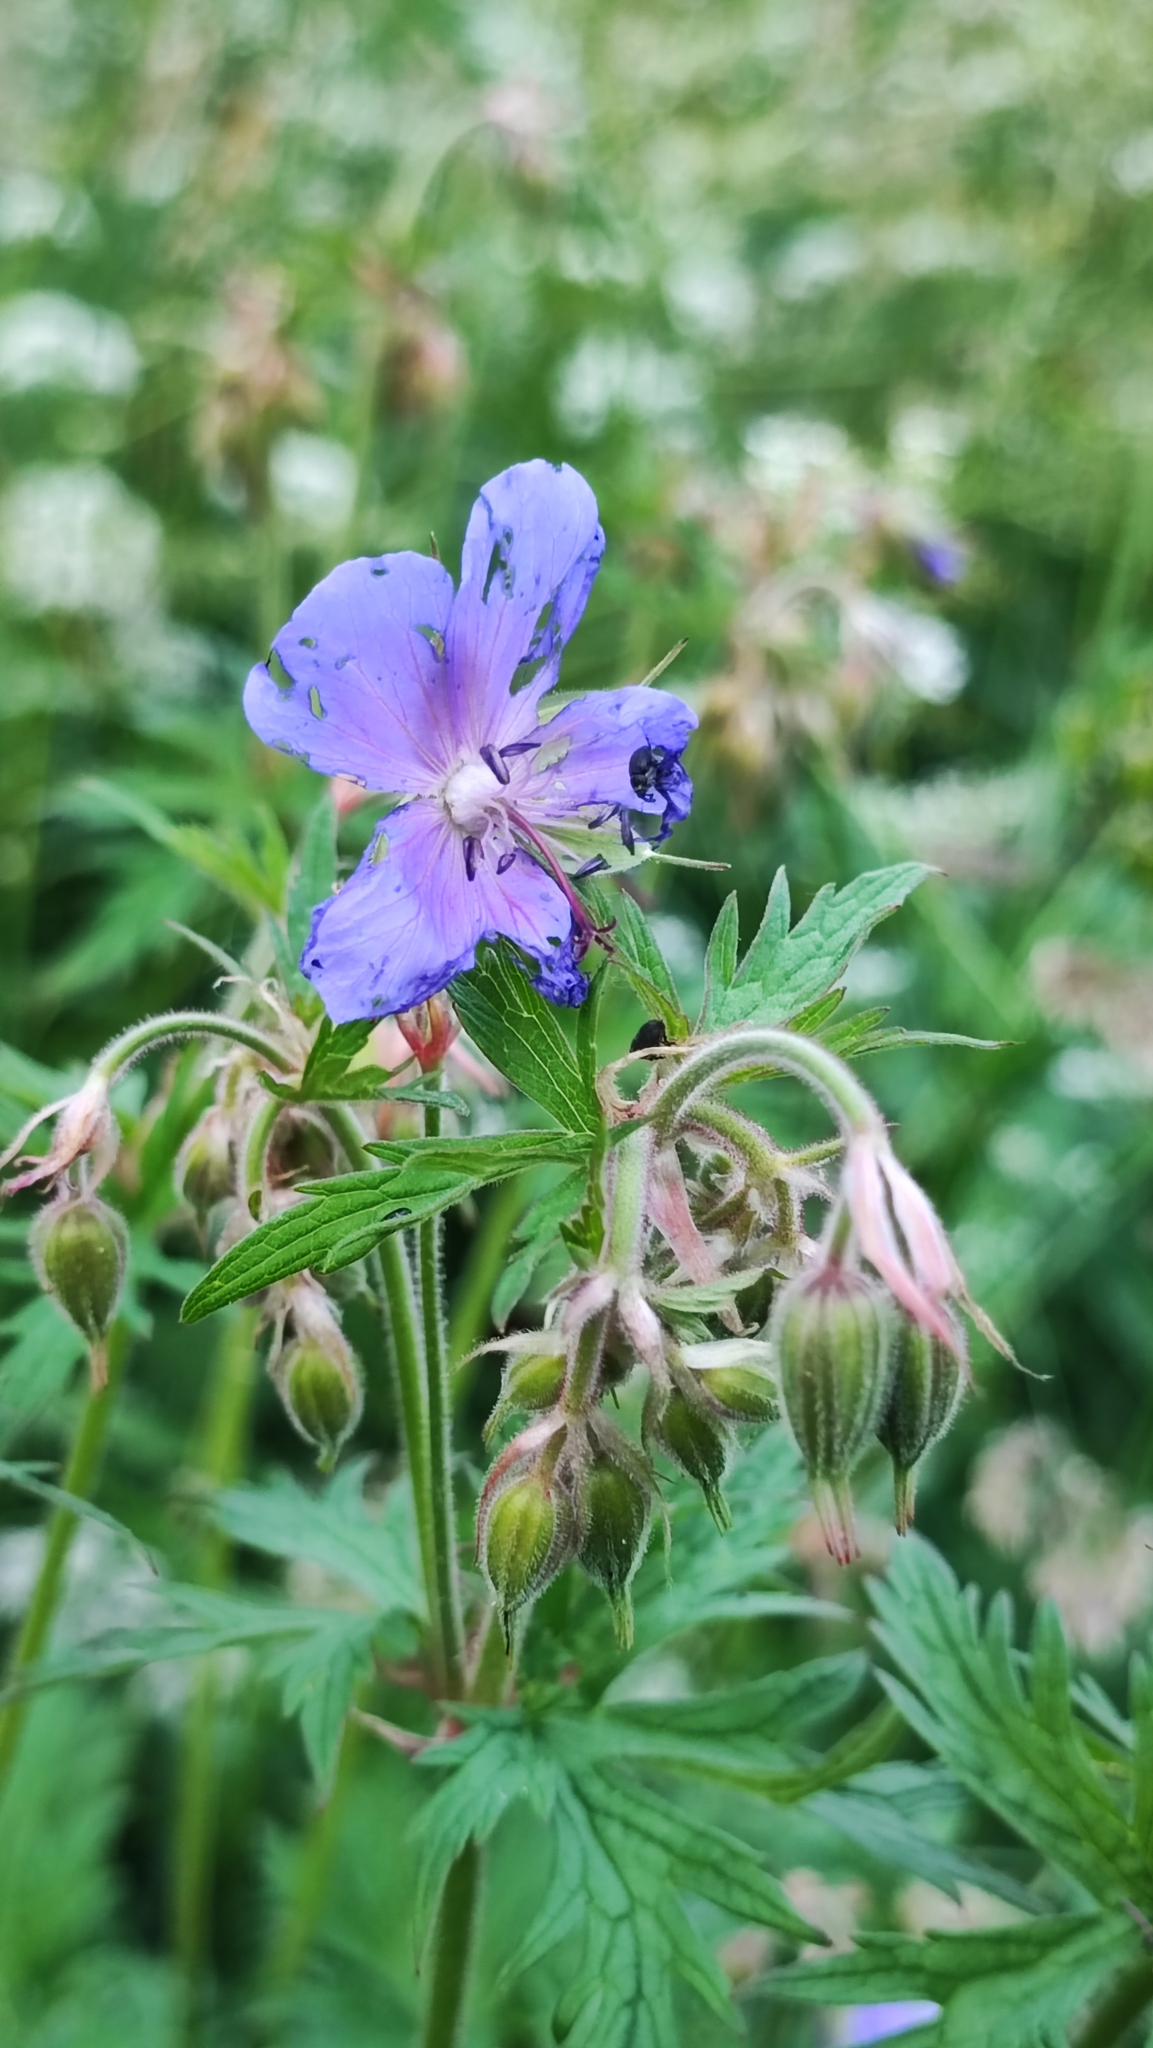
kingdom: Plantae
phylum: Tracheophyta
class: Magnoliopsida
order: Geraniales
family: Geraniaceae
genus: Geranium
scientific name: Geranium pratense
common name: Meadow crane's-bill
